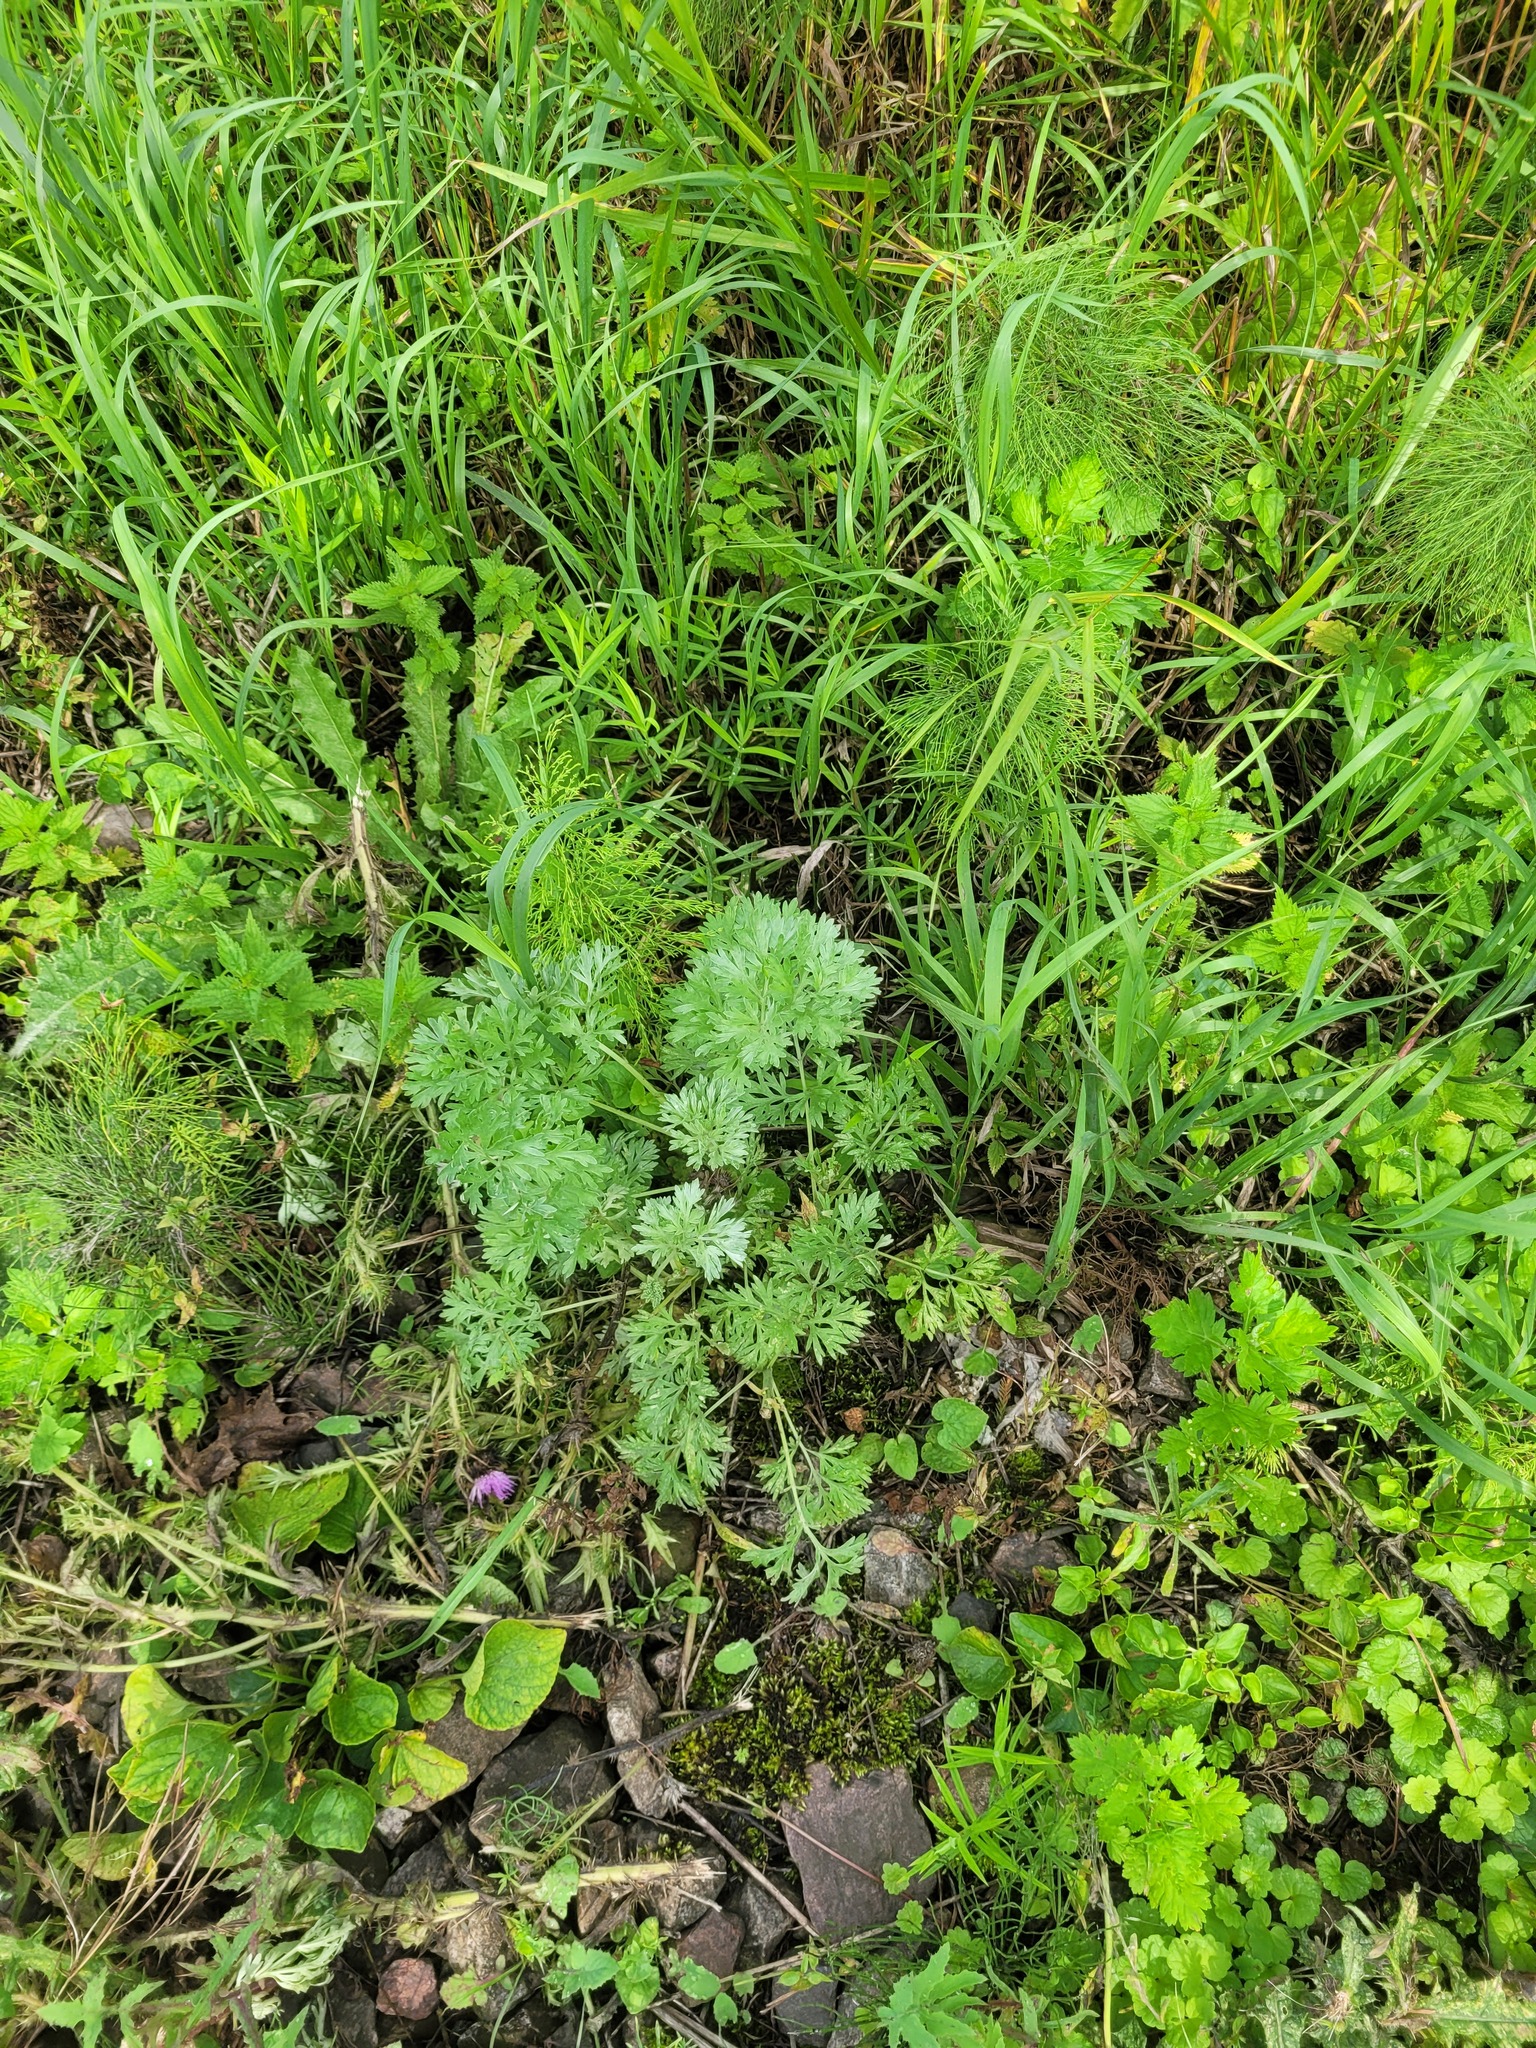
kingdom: Plantae
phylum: Tracheophyta
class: Magnoliopsida
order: Asterales
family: Asteraceae
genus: Artemisia
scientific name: Artemisia absinthium
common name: Wormwood
